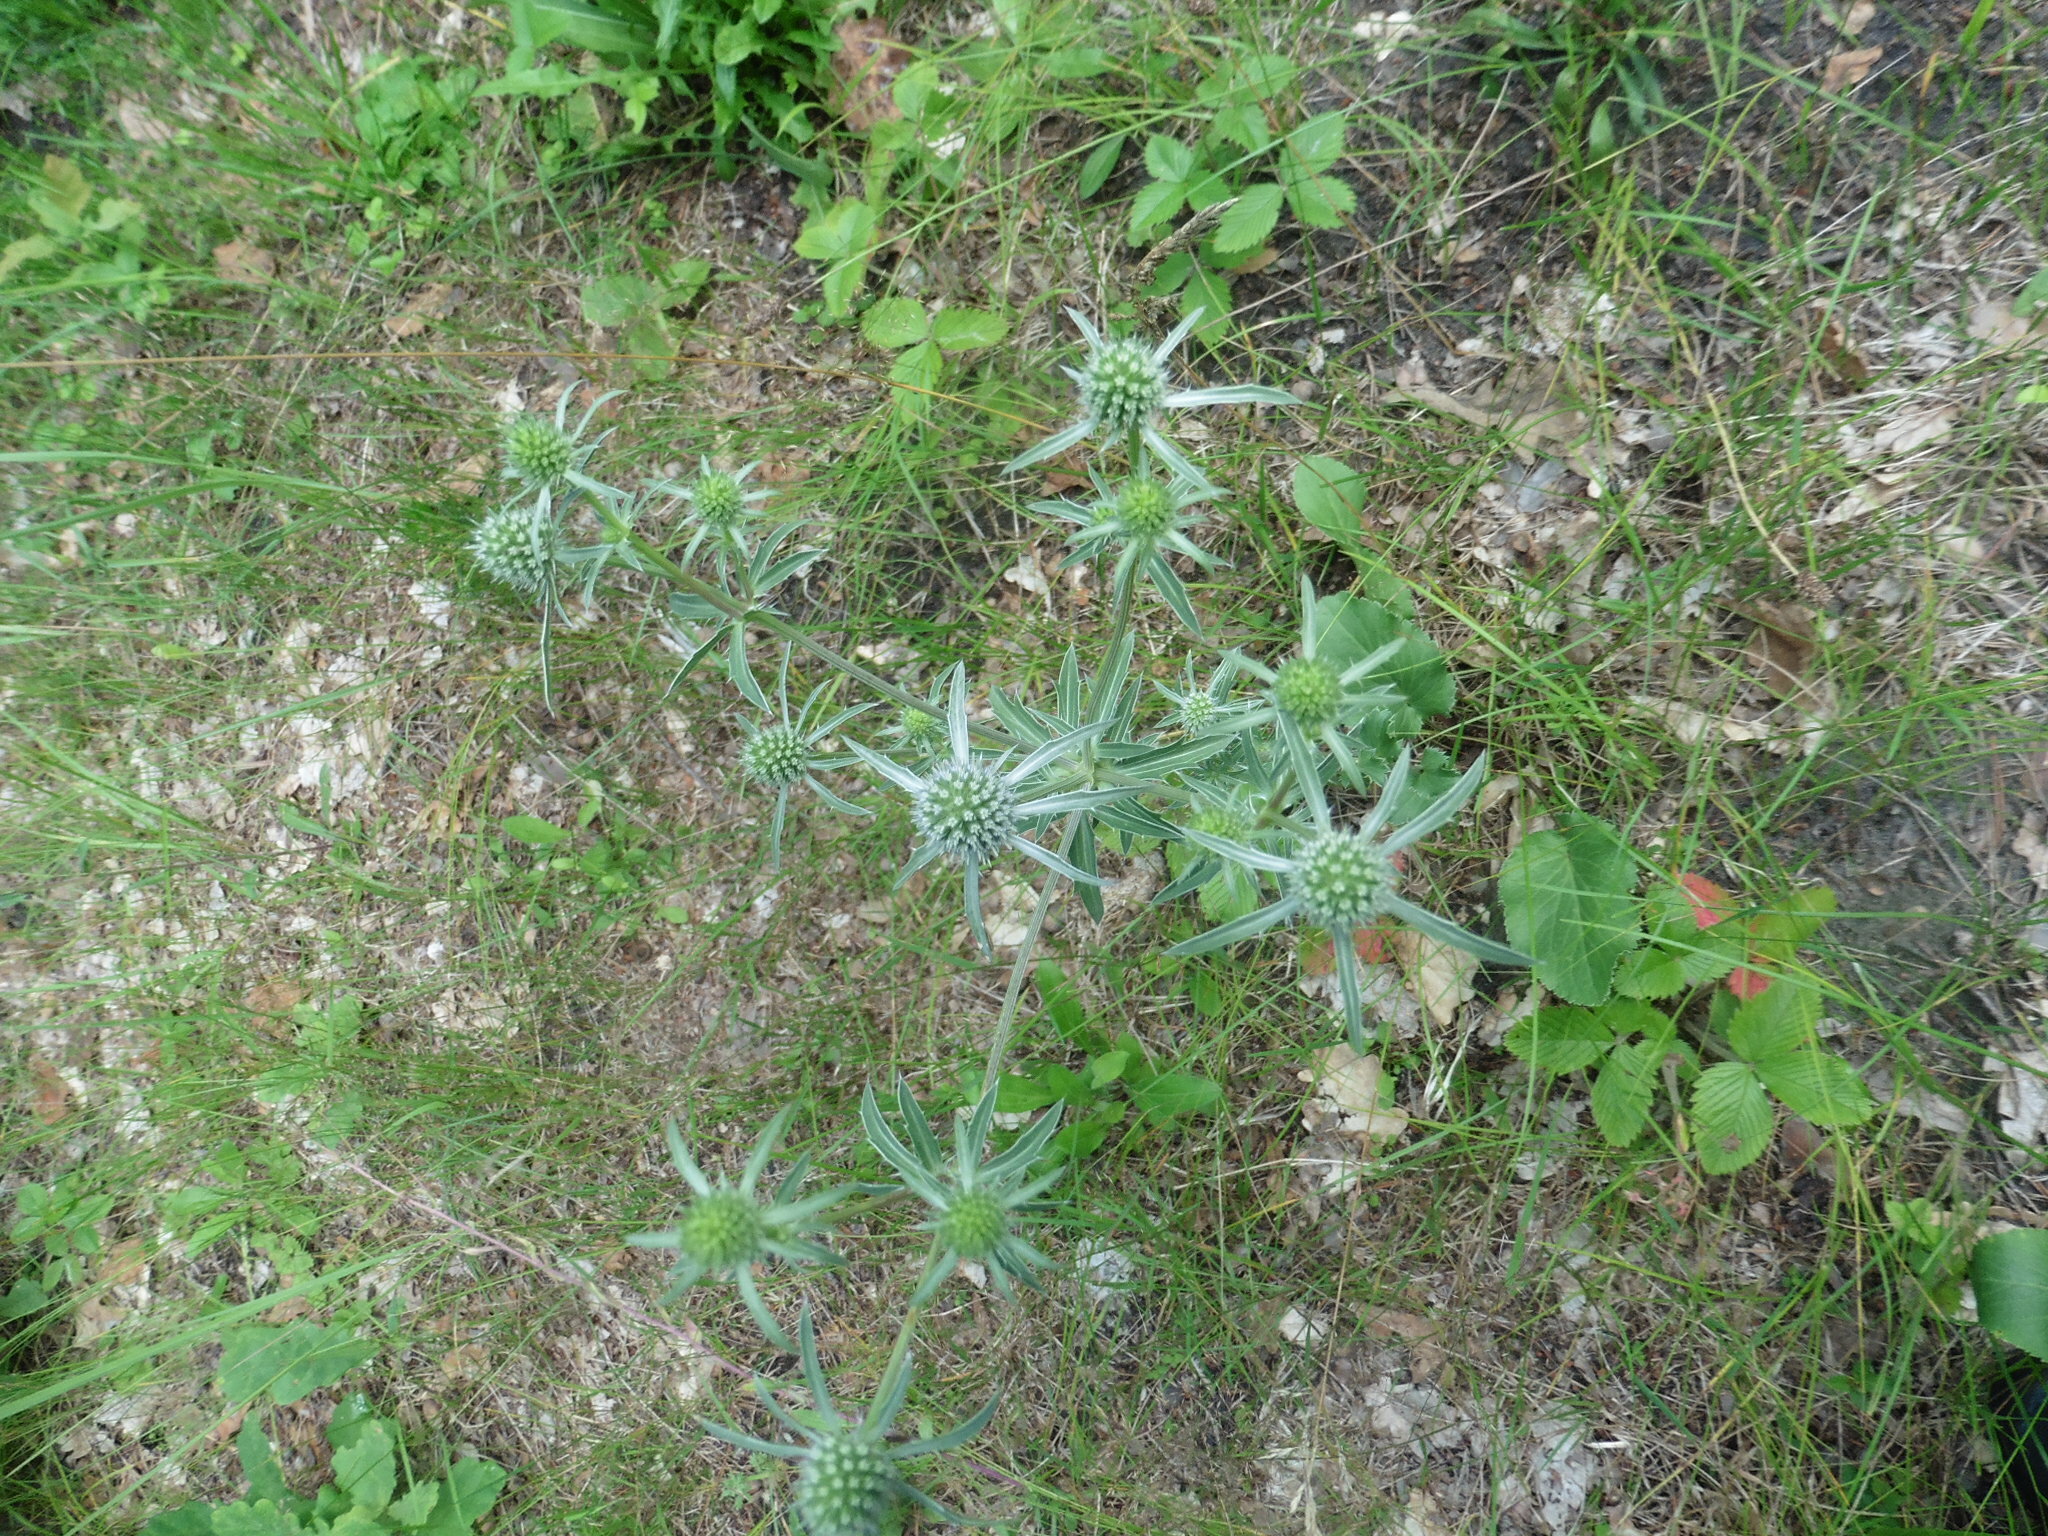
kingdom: Plantae
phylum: Tracheophyta
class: Magnoliopsida
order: Apiales
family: Apiaceae
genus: Eryngium
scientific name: Eryngium planum
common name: Blue eryngo
